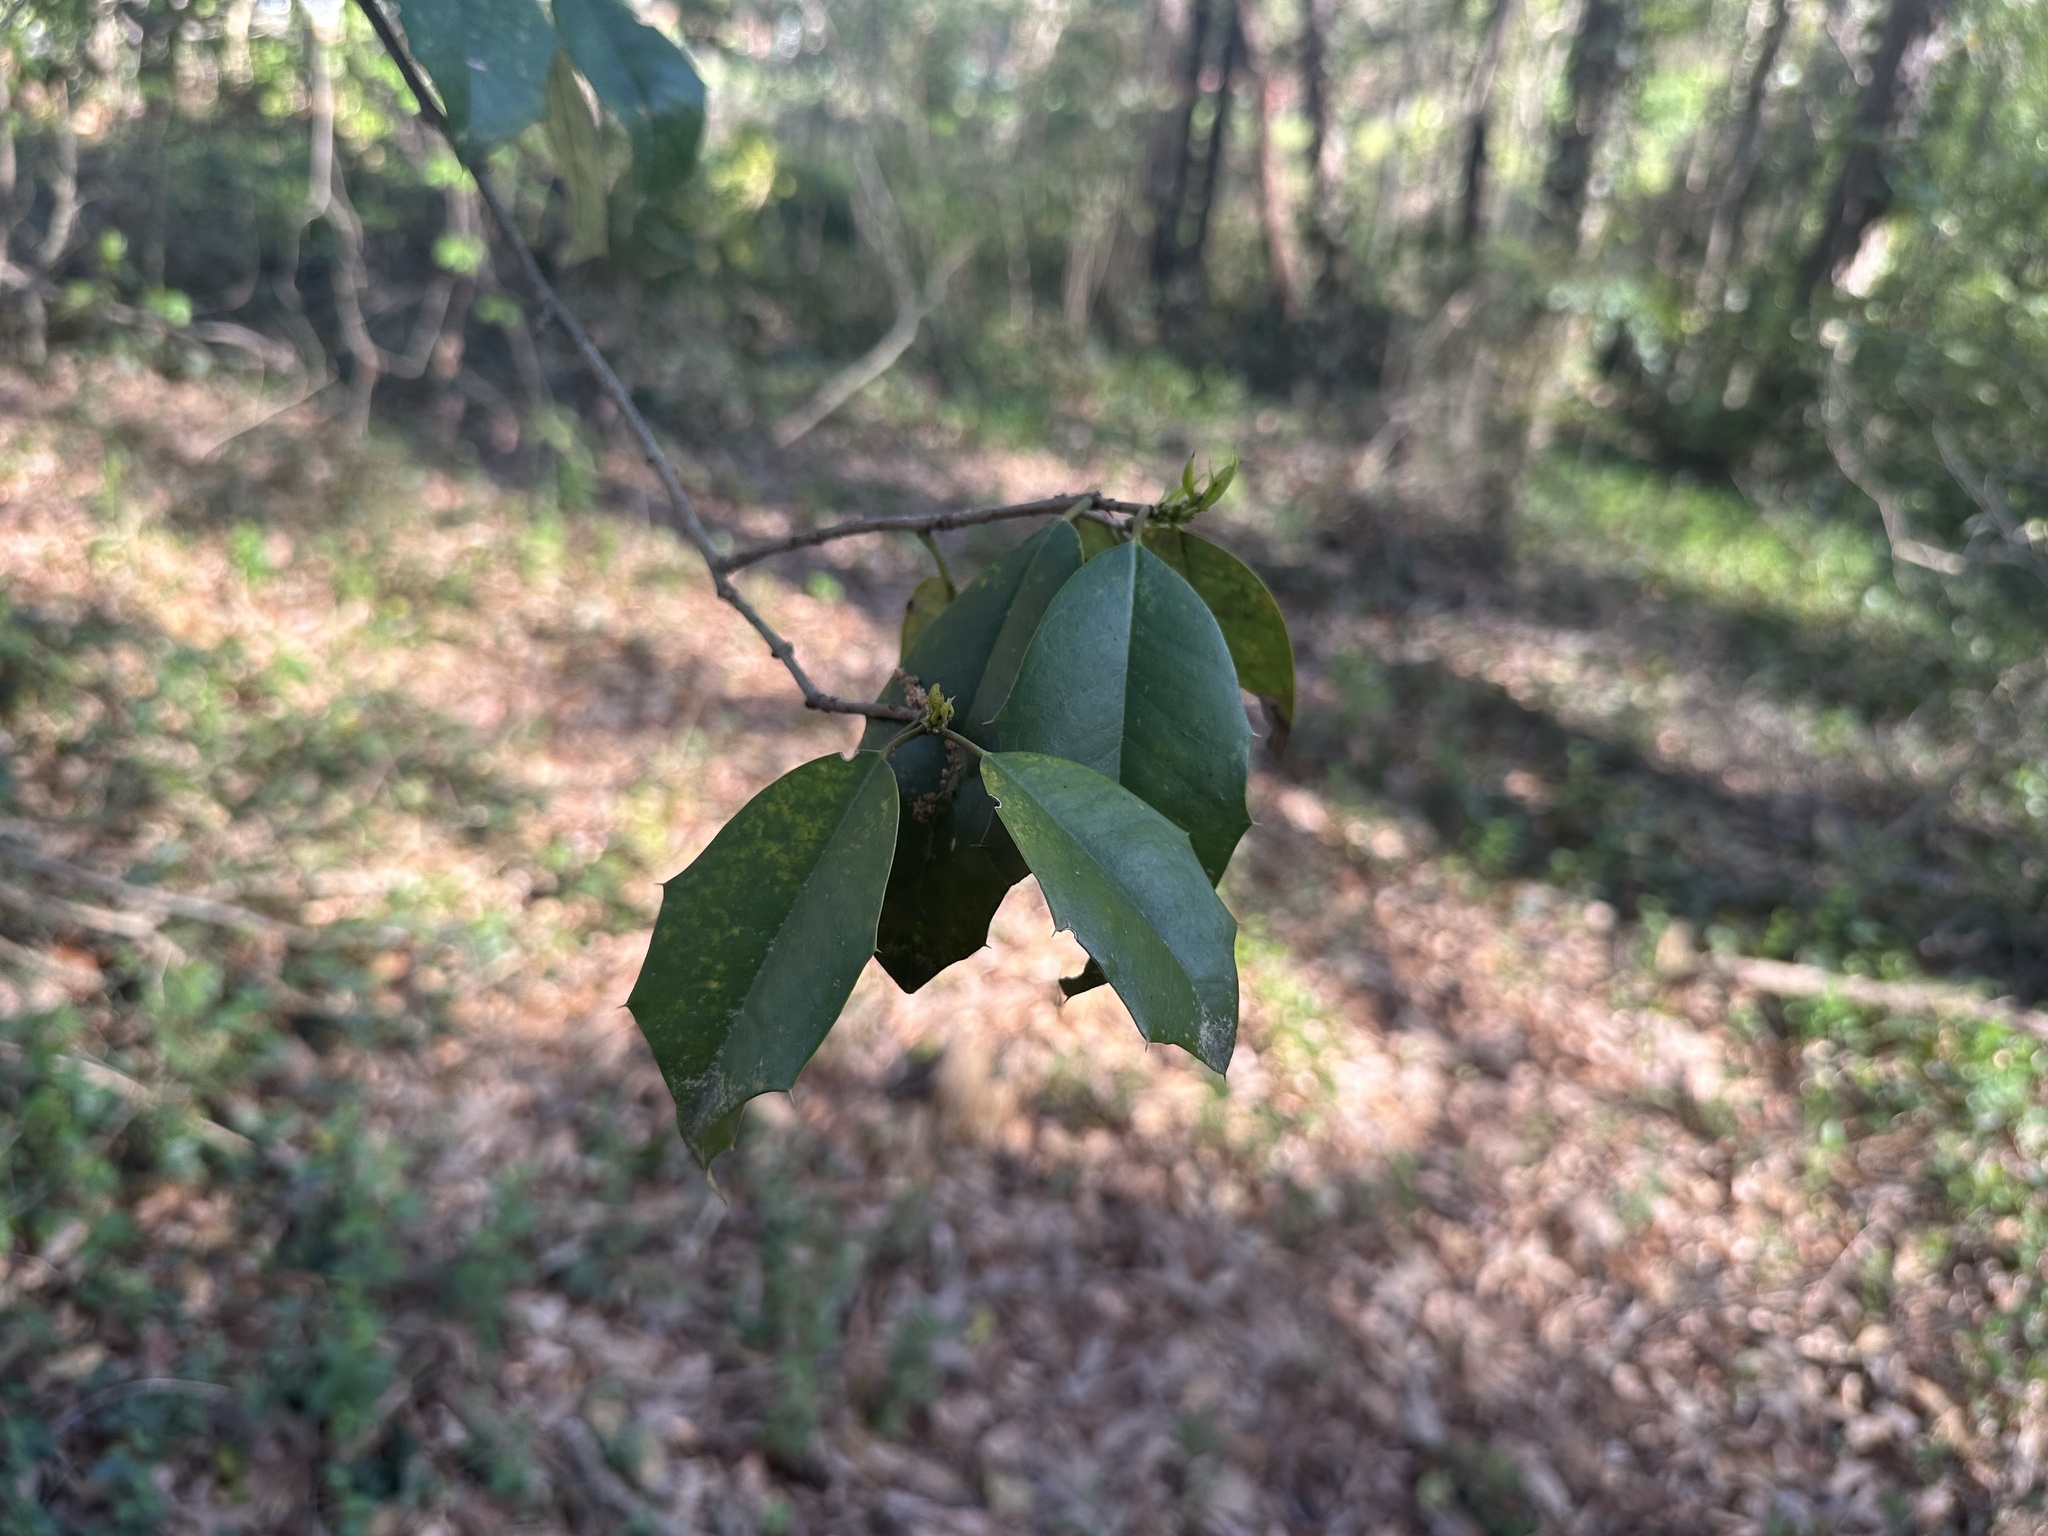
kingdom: Plantae
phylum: Tracheophyta
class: Magnoliopsida
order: Aquifoliales
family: Aquifoliaceae
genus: Ilex
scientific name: Ilex opaca
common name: American holly
